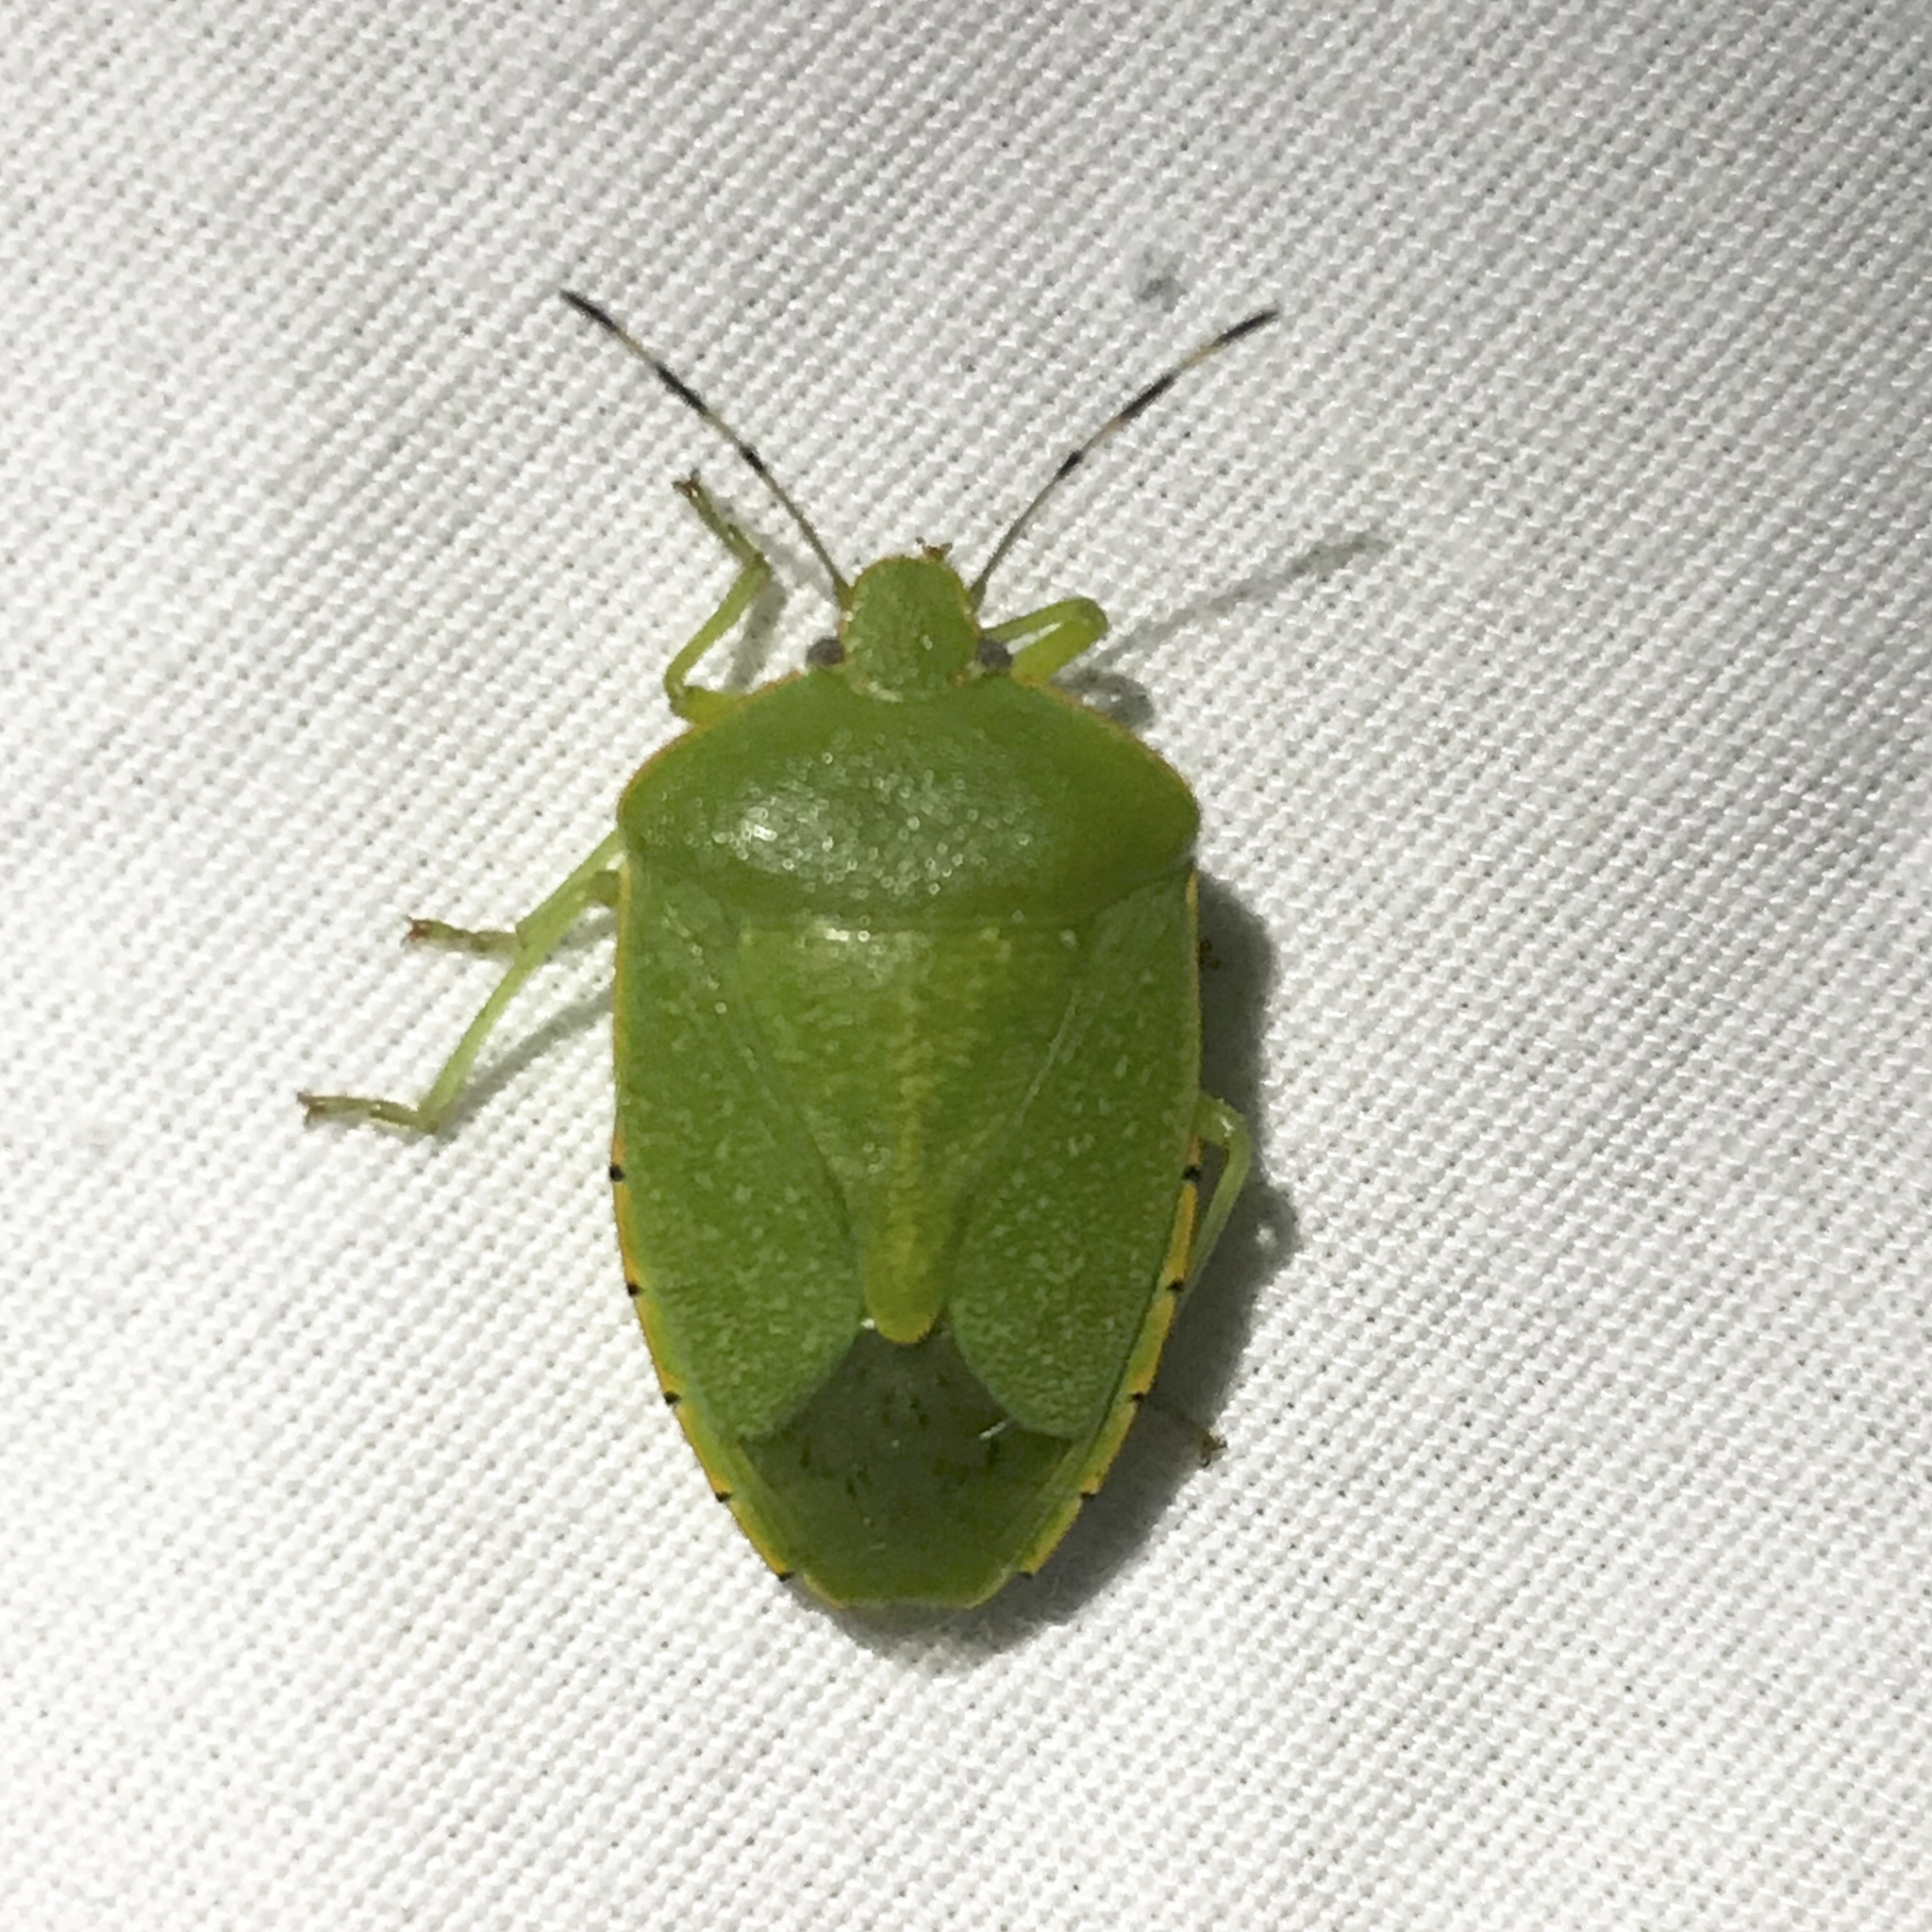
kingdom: Animalia
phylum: Arthropoda
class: Insecta
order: Hemiptera
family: Pentatomidae
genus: Chinavia
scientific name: Chinavia hilaris
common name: Green stink bug
